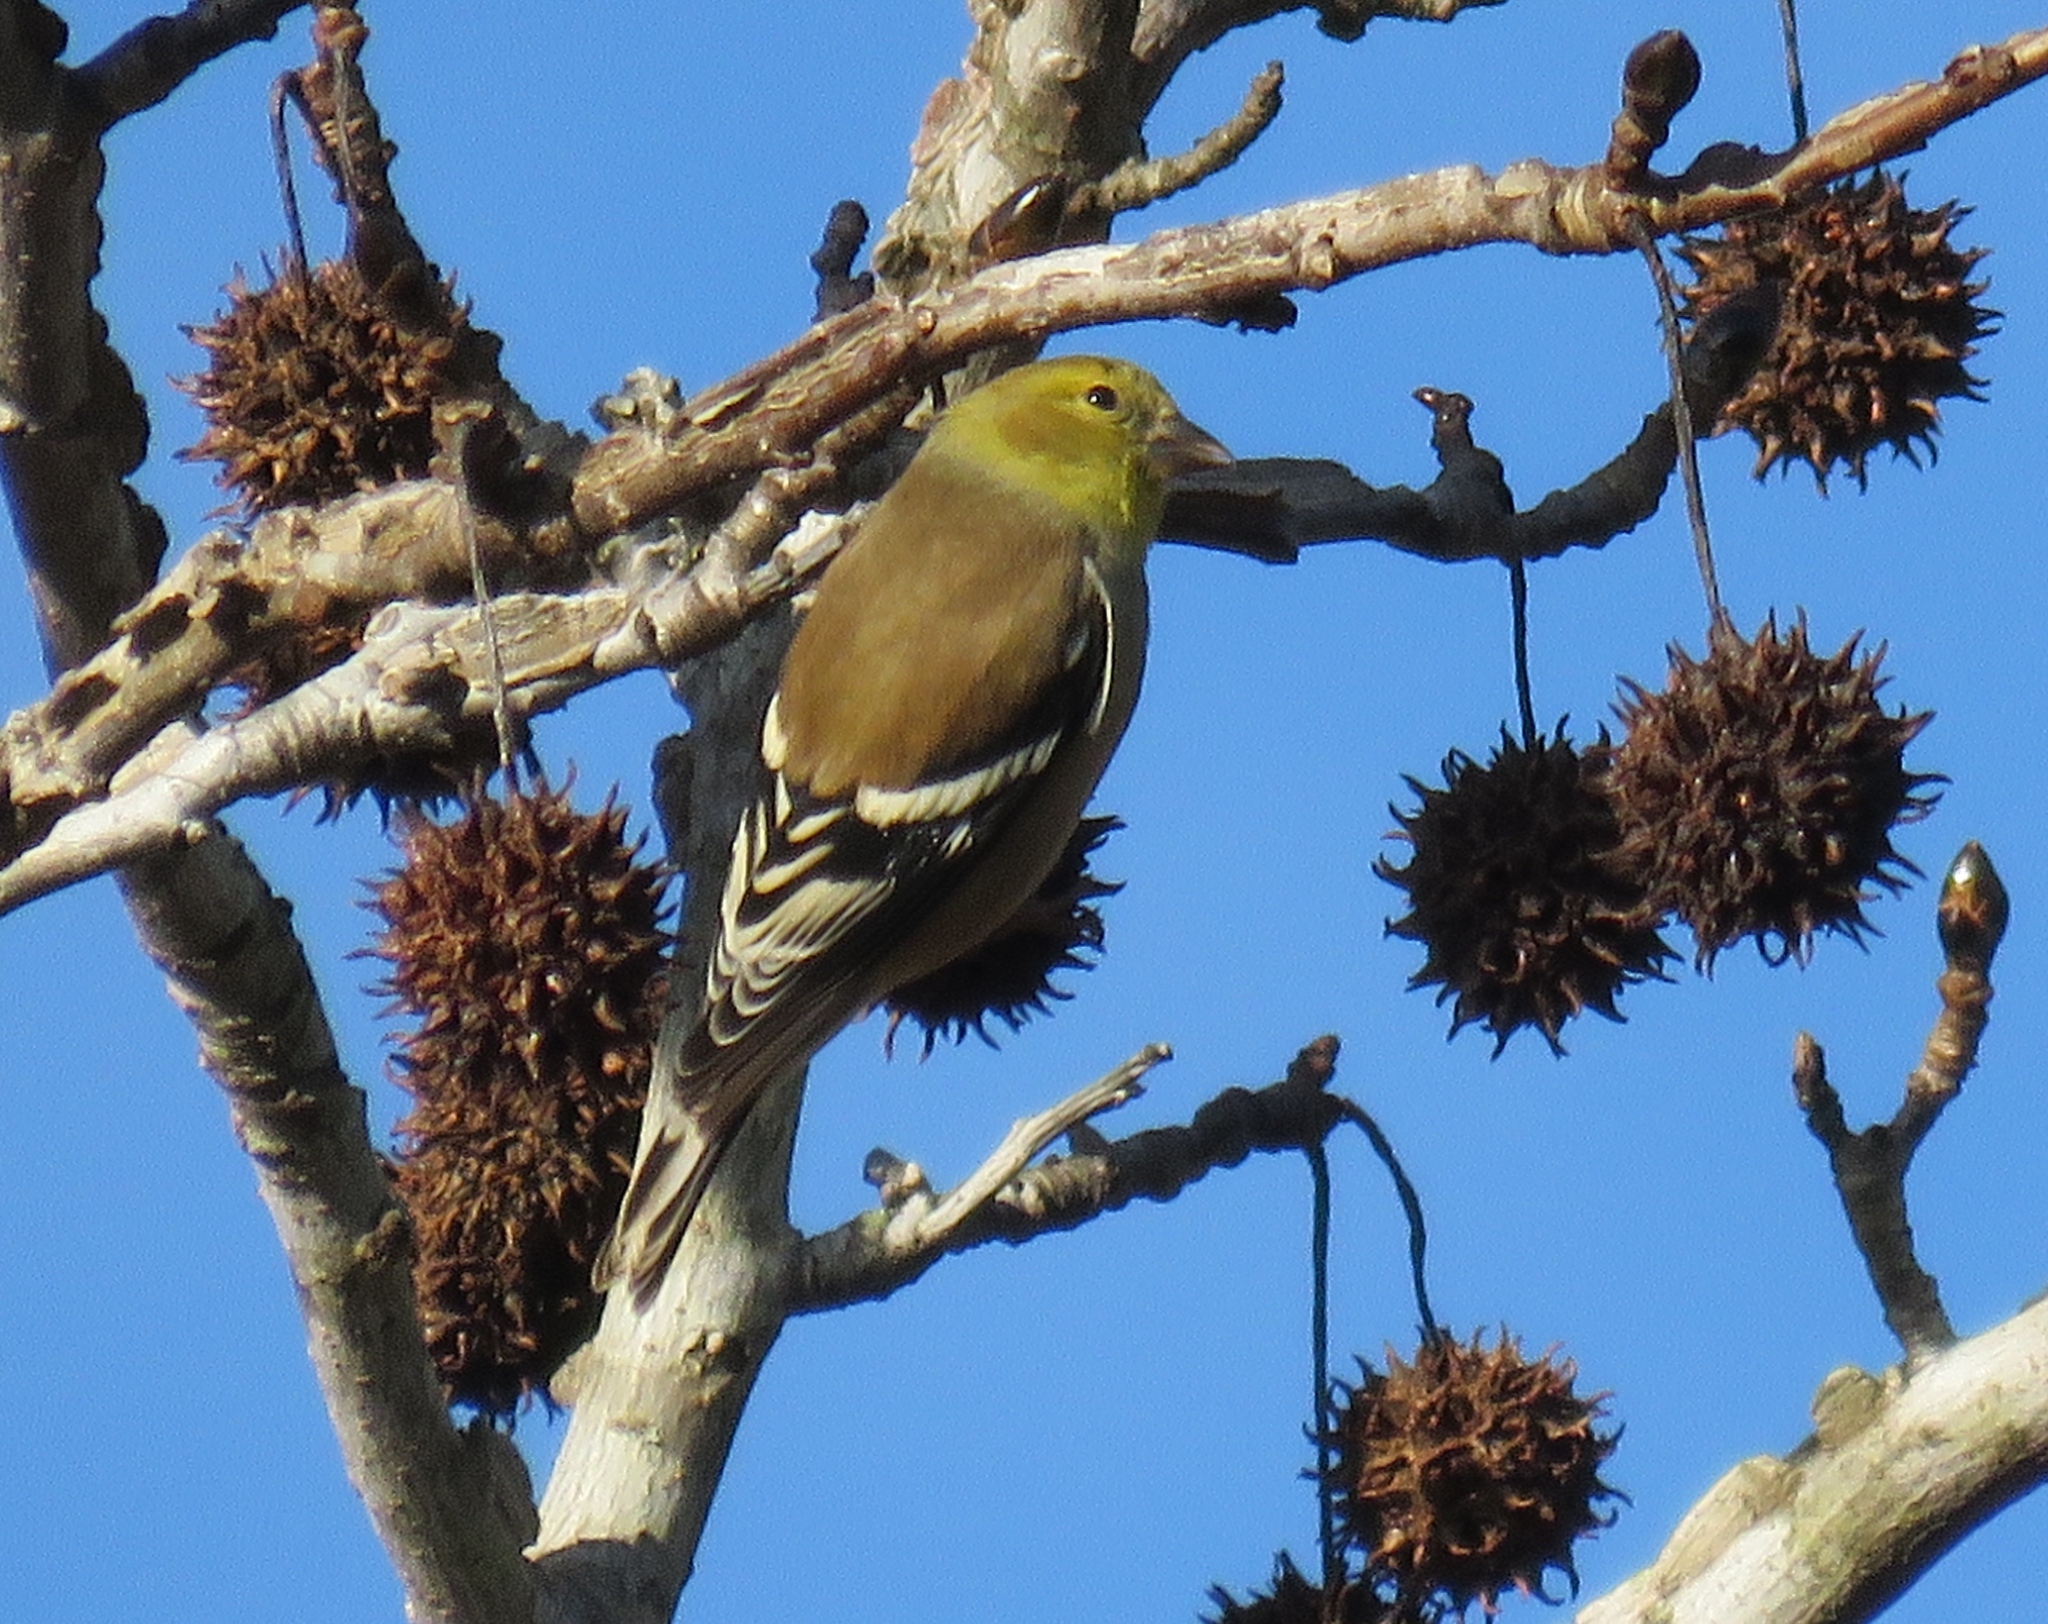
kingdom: Animalia
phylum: Chordata
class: Aves
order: Passeriformes
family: Fringillidae
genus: Spinus
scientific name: Spinus tristis
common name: American goldfinch
